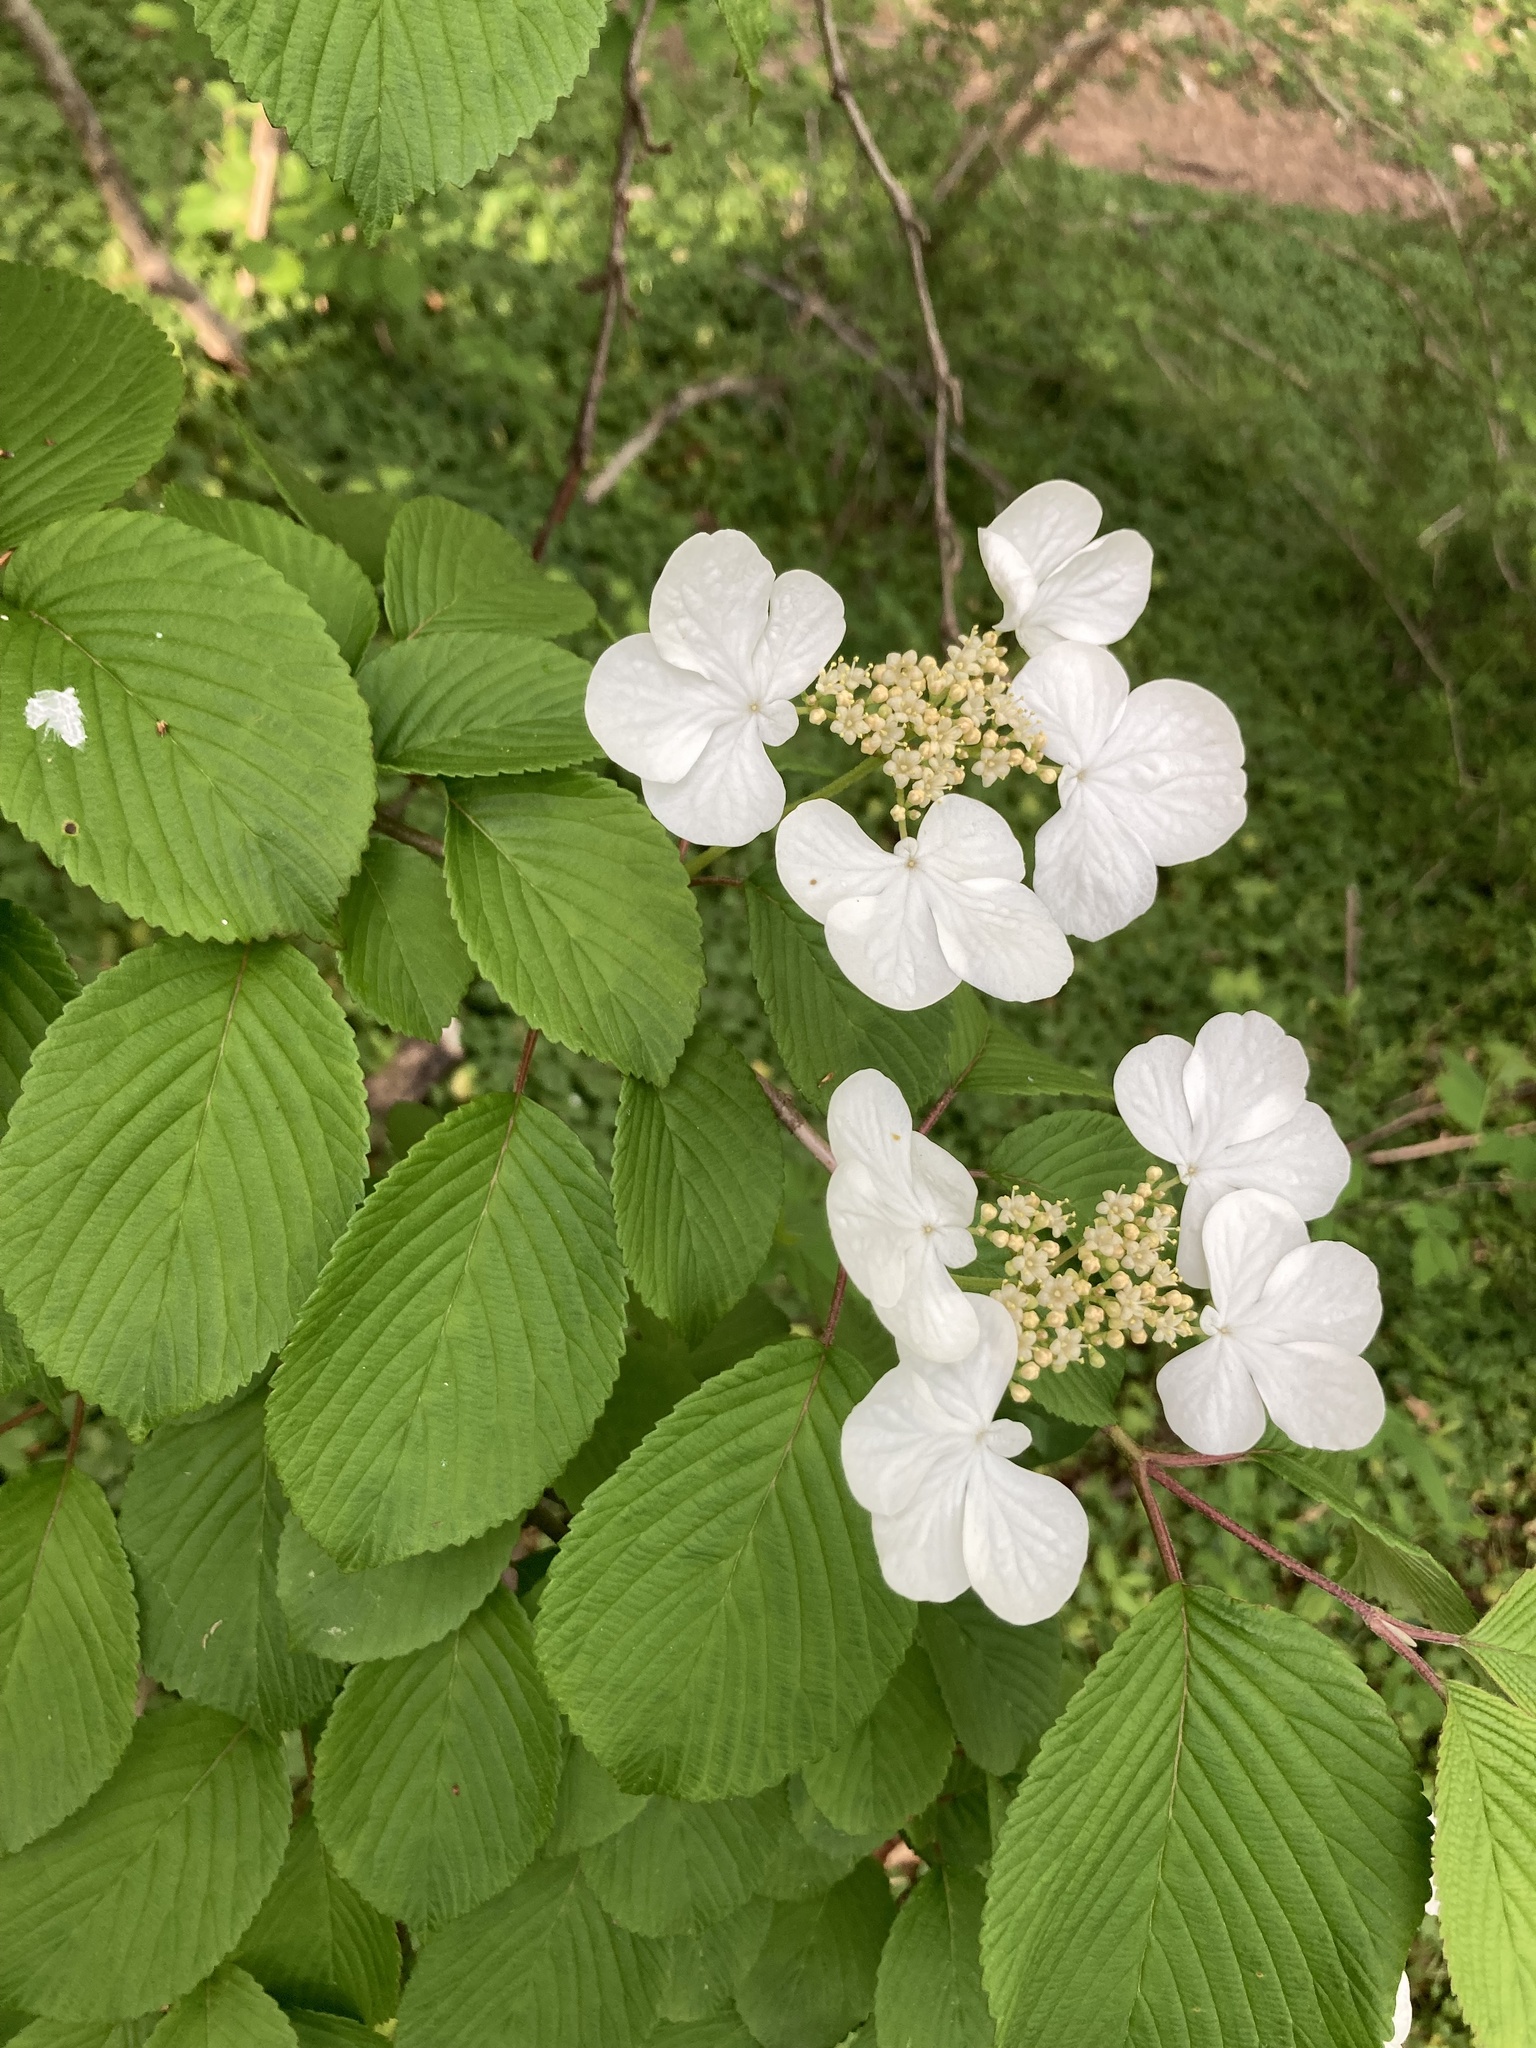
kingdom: Plantae
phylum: Tracheophyta
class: Magnoliopsida
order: Dipsacales
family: Viburnaceae
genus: Viburnum
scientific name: Viburnum plicatum
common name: Japanese snowball
